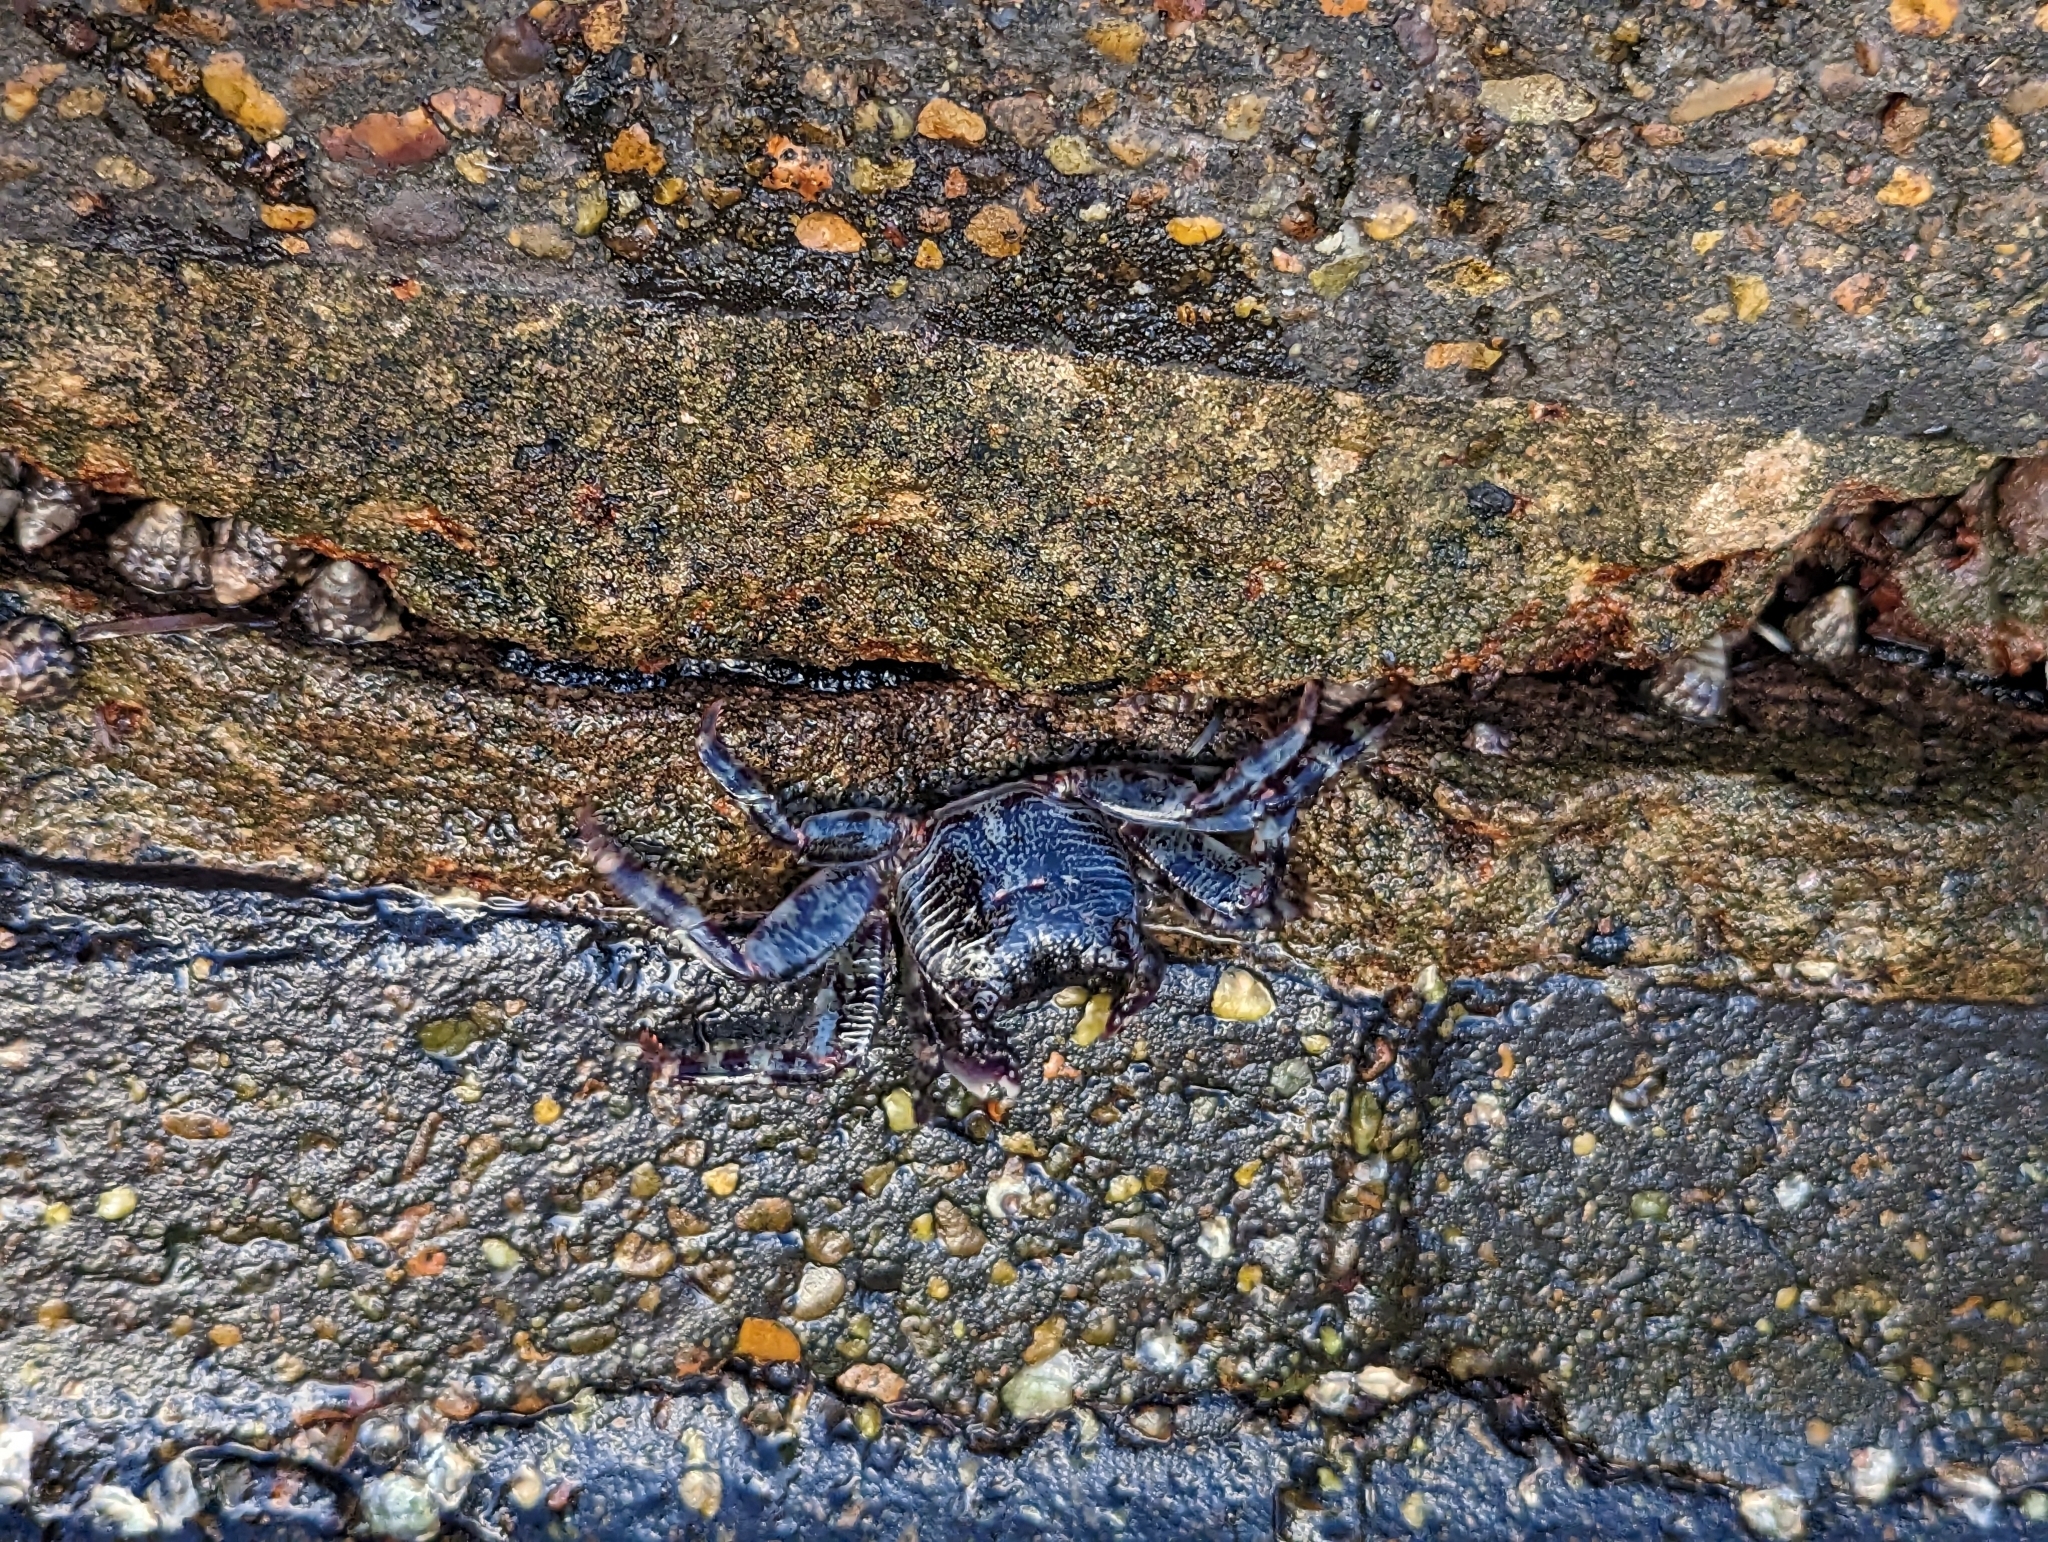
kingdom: Animalia
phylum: Arthropoda
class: Malacostraca
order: Decapoda
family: Grapsidae
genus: Leptograpsus
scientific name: Leptograpsus variegatus
